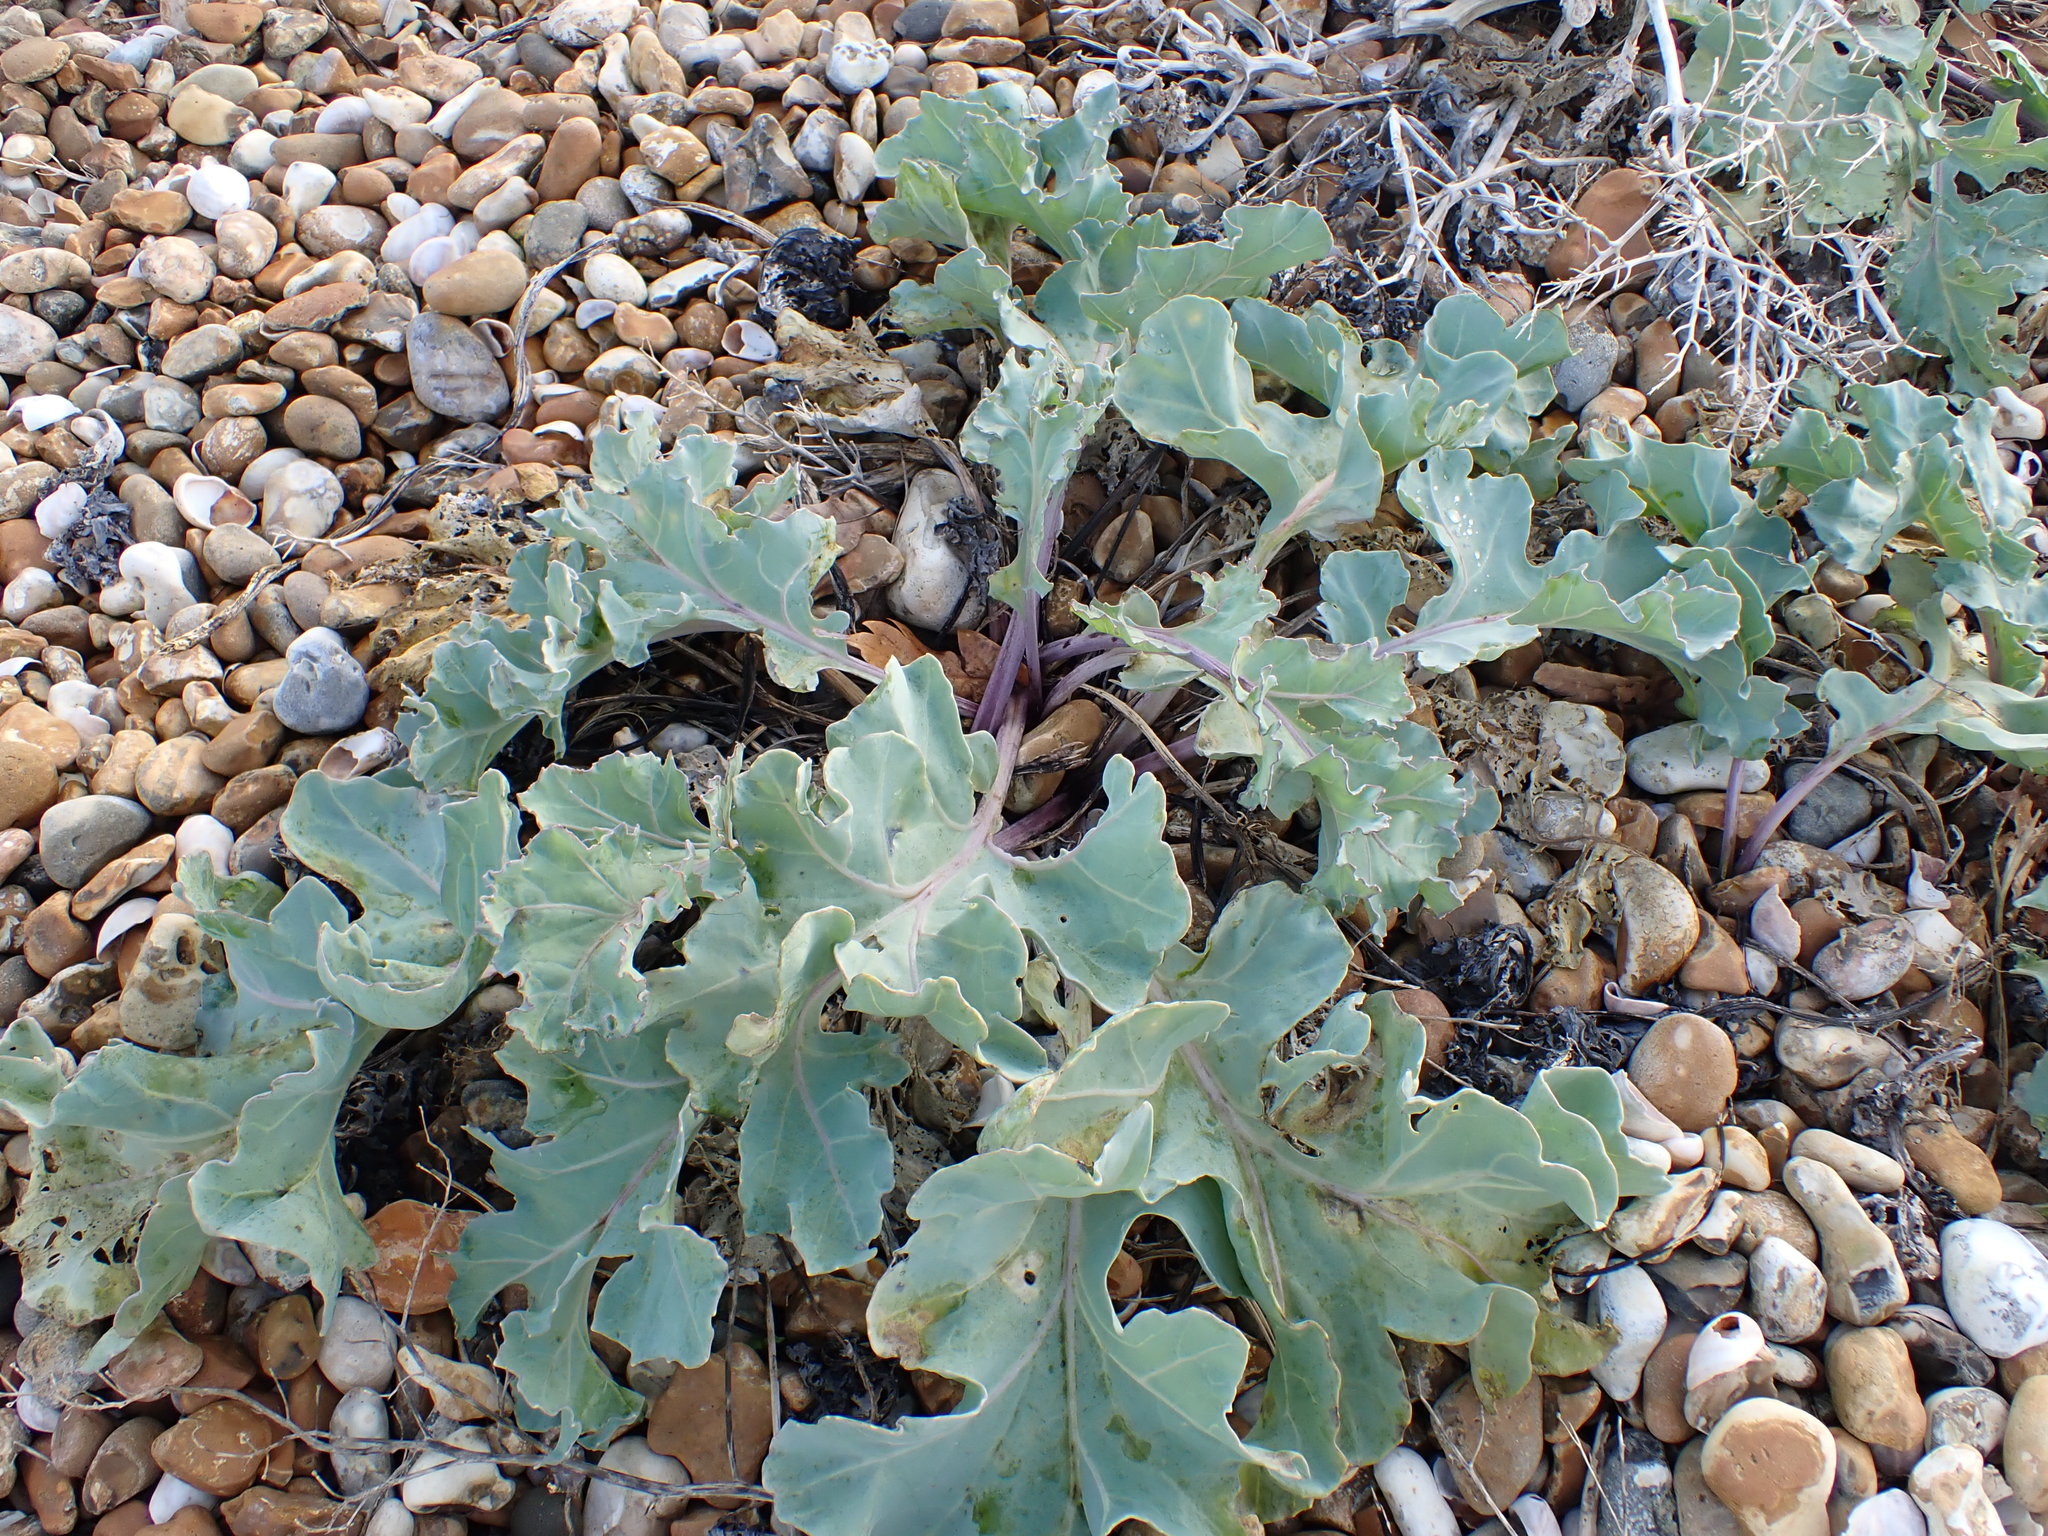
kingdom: Plantae
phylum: Tracheophyta
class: Magnoliopsida
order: Brassicales
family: Brassicaceae
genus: Crambe
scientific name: Crambe maritima
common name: Sea-kale
